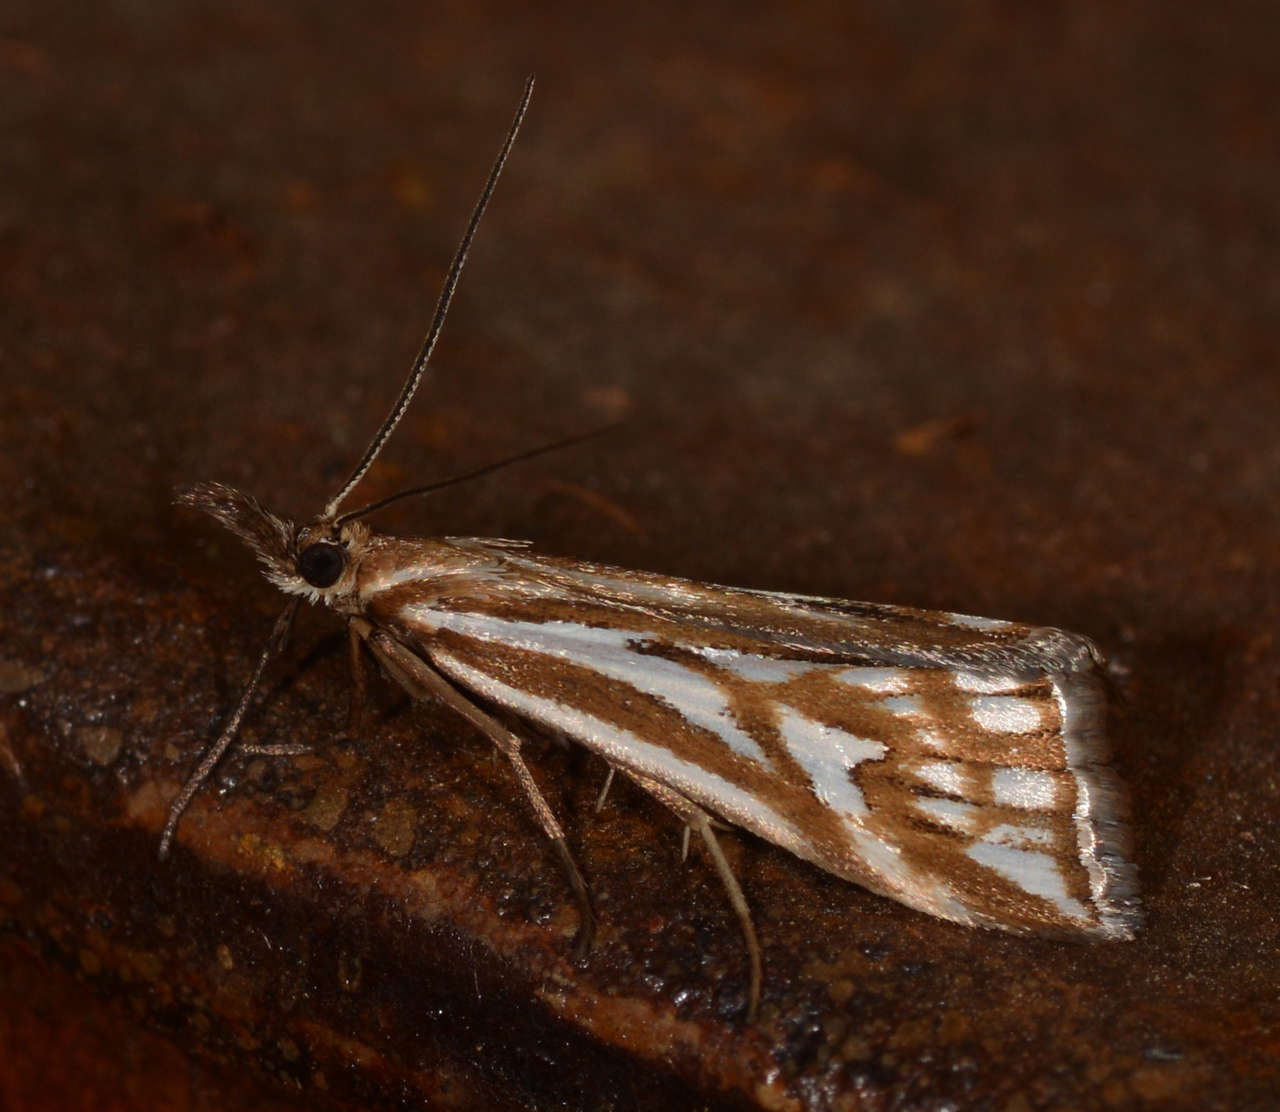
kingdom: Animalia
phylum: Arthropoda
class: Insecta
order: Lepidoptera
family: Crambidae
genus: Hednota
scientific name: Hednota pleniferellus
